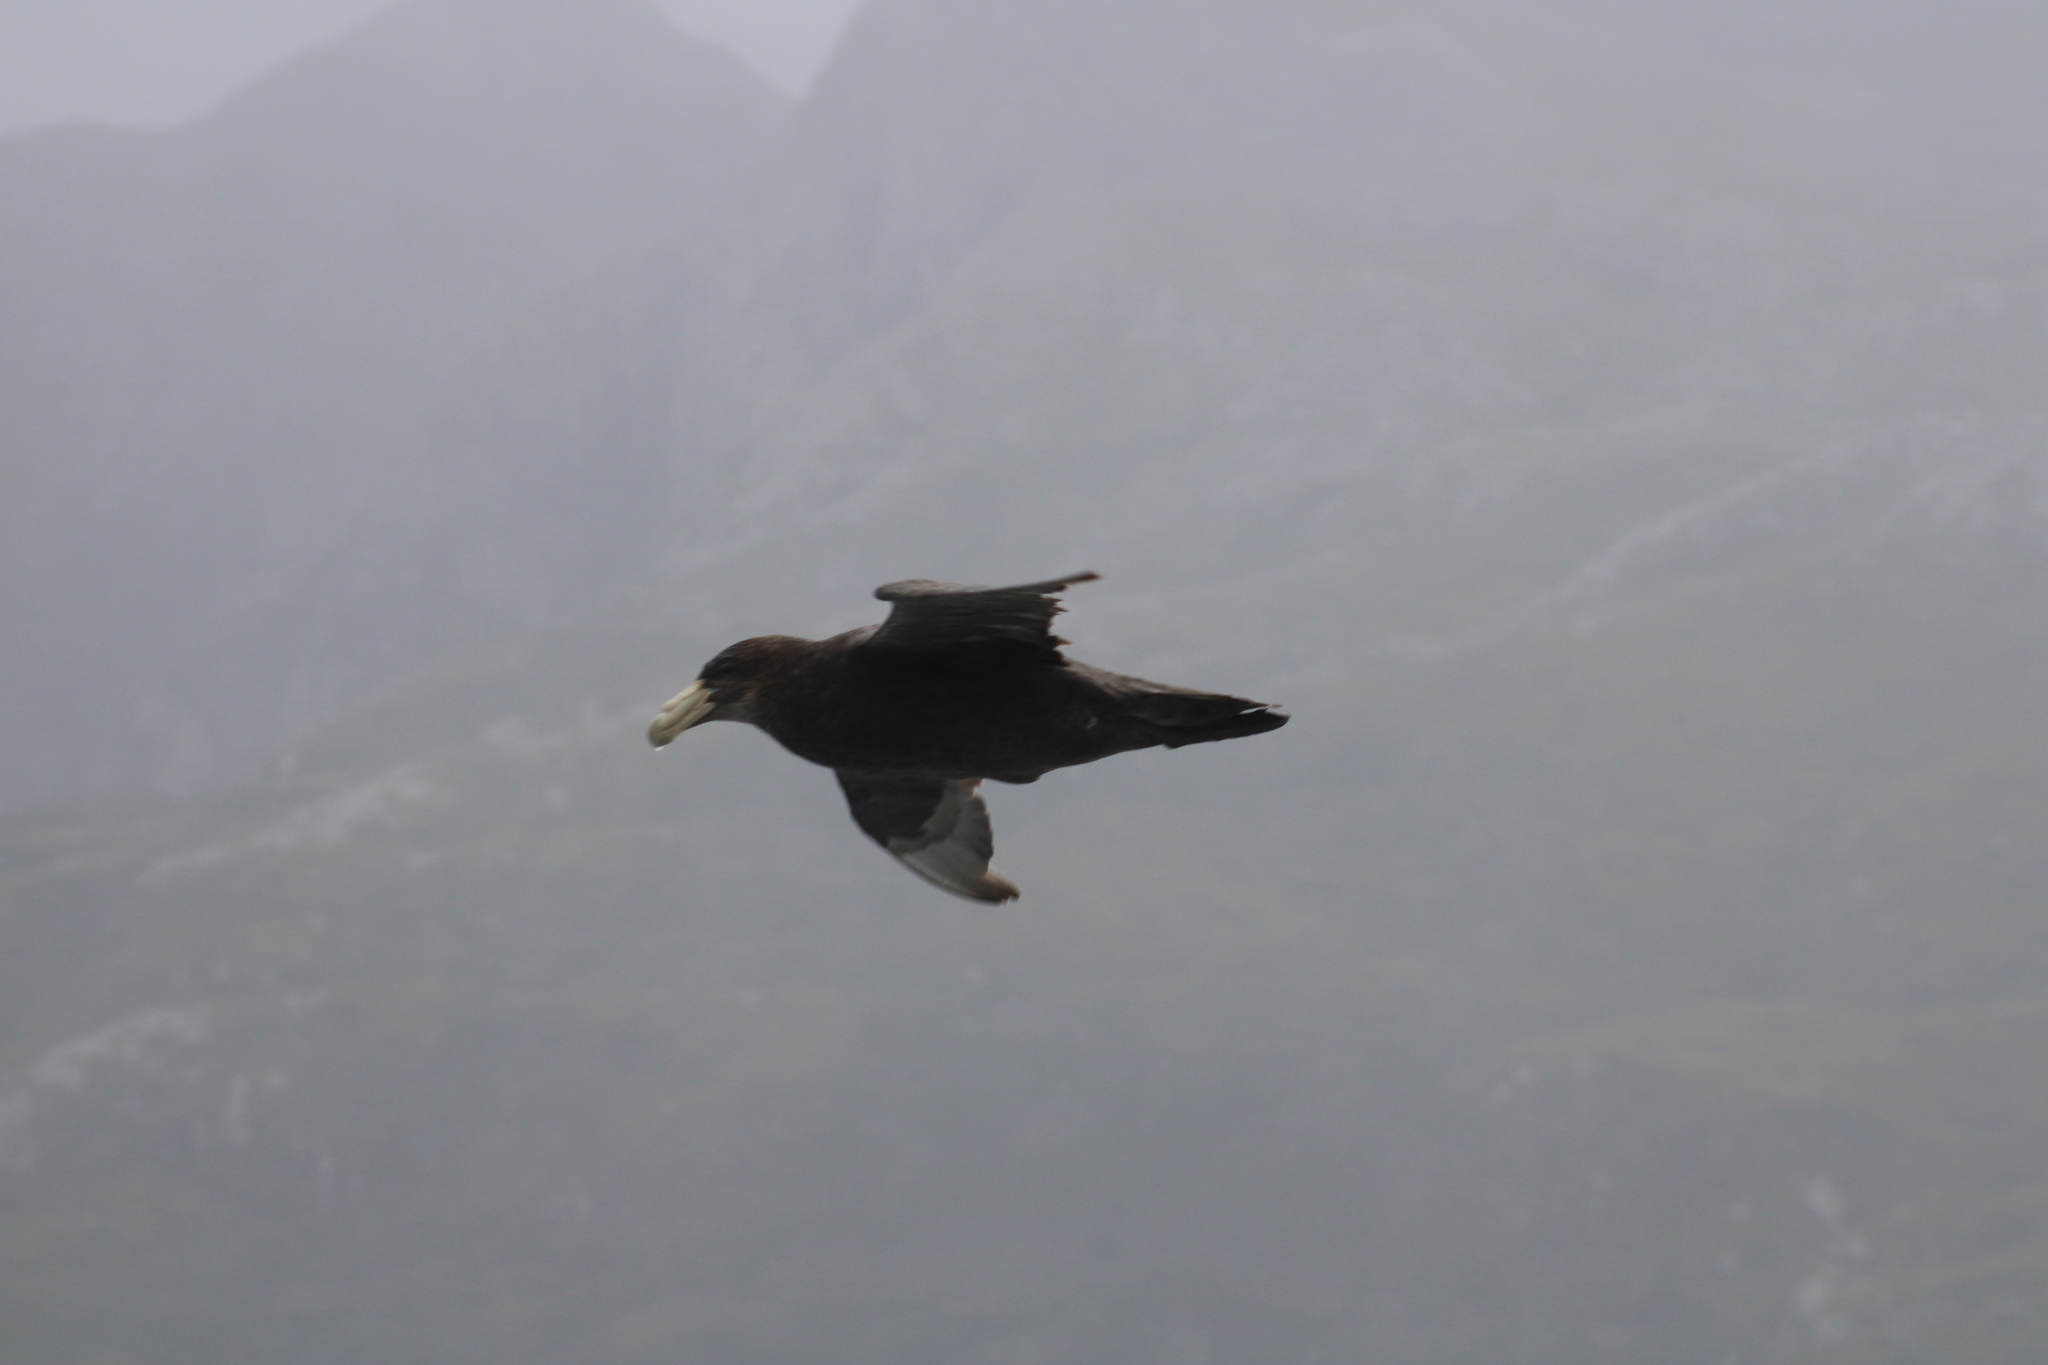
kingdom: Animalia
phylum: Chordata
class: Aves
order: Procellariiformes
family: Procellariidae
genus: Macronectes
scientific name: Macronectes giganteus
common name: Southern giant petrel
